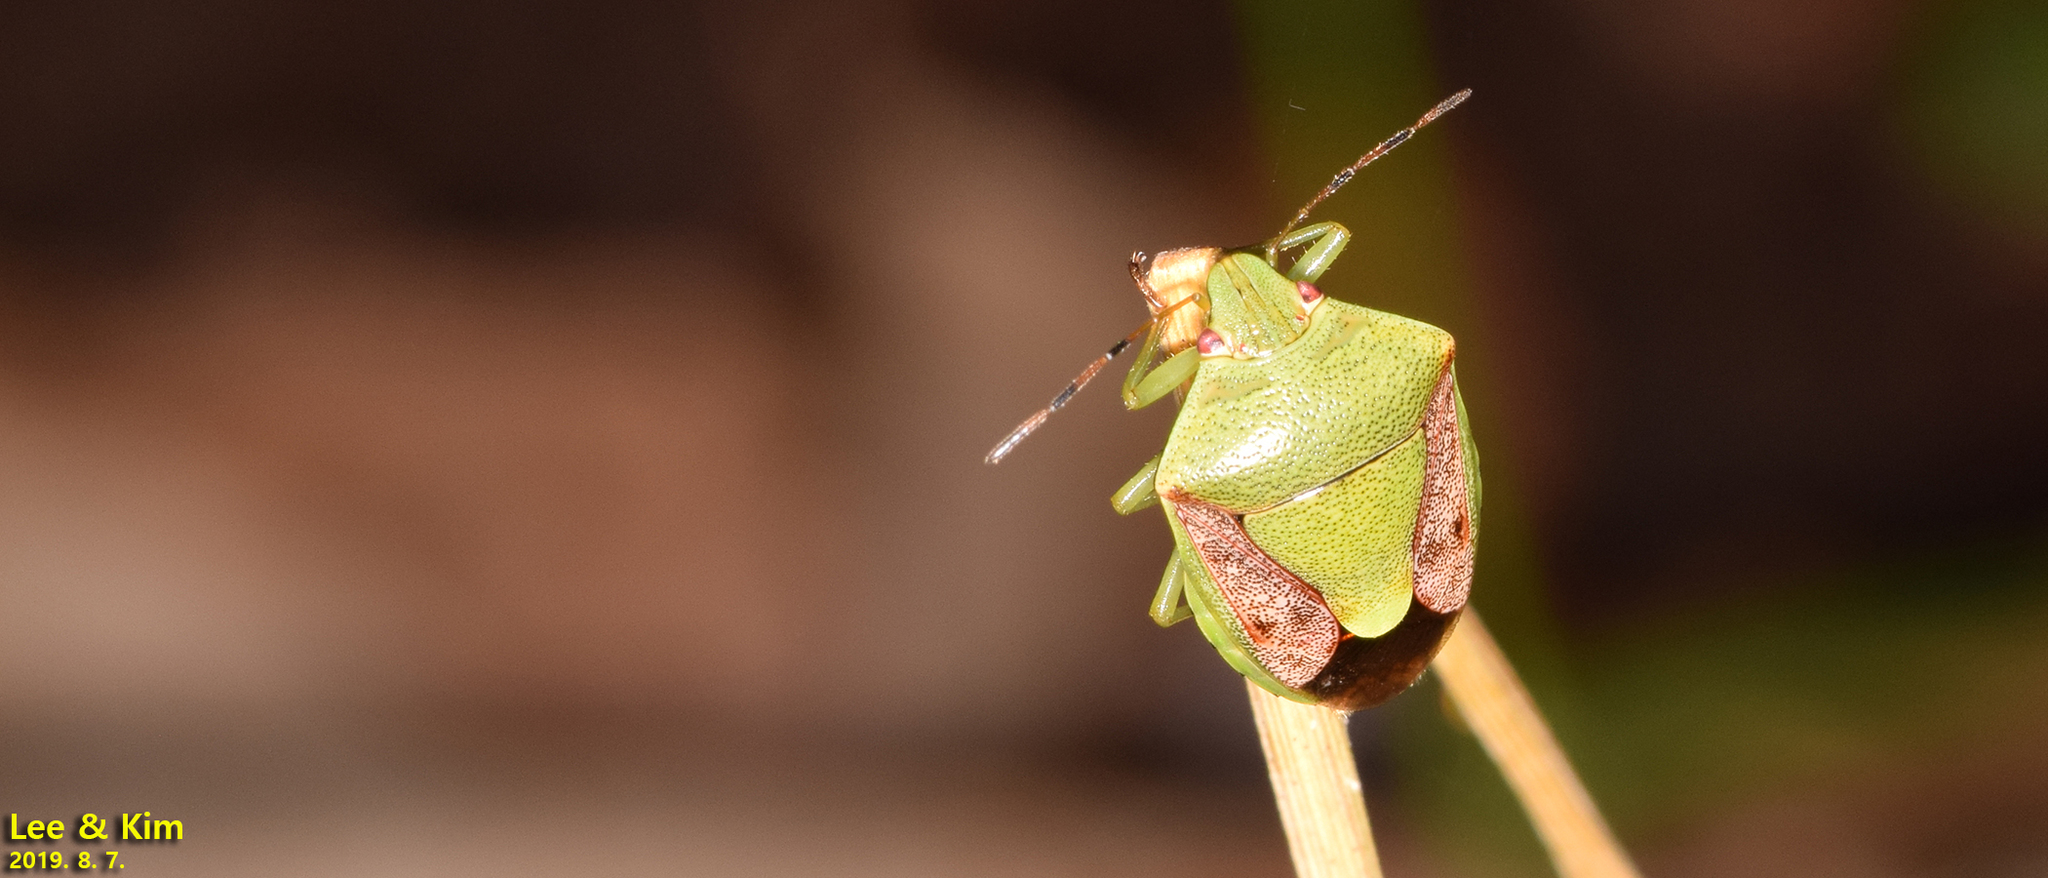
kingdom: Animalia
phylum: Arthropoda
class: Insecta
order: Hemiptera
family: Pentatomidae
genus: Plautia
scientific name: Plautia stali
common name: Stink bug
